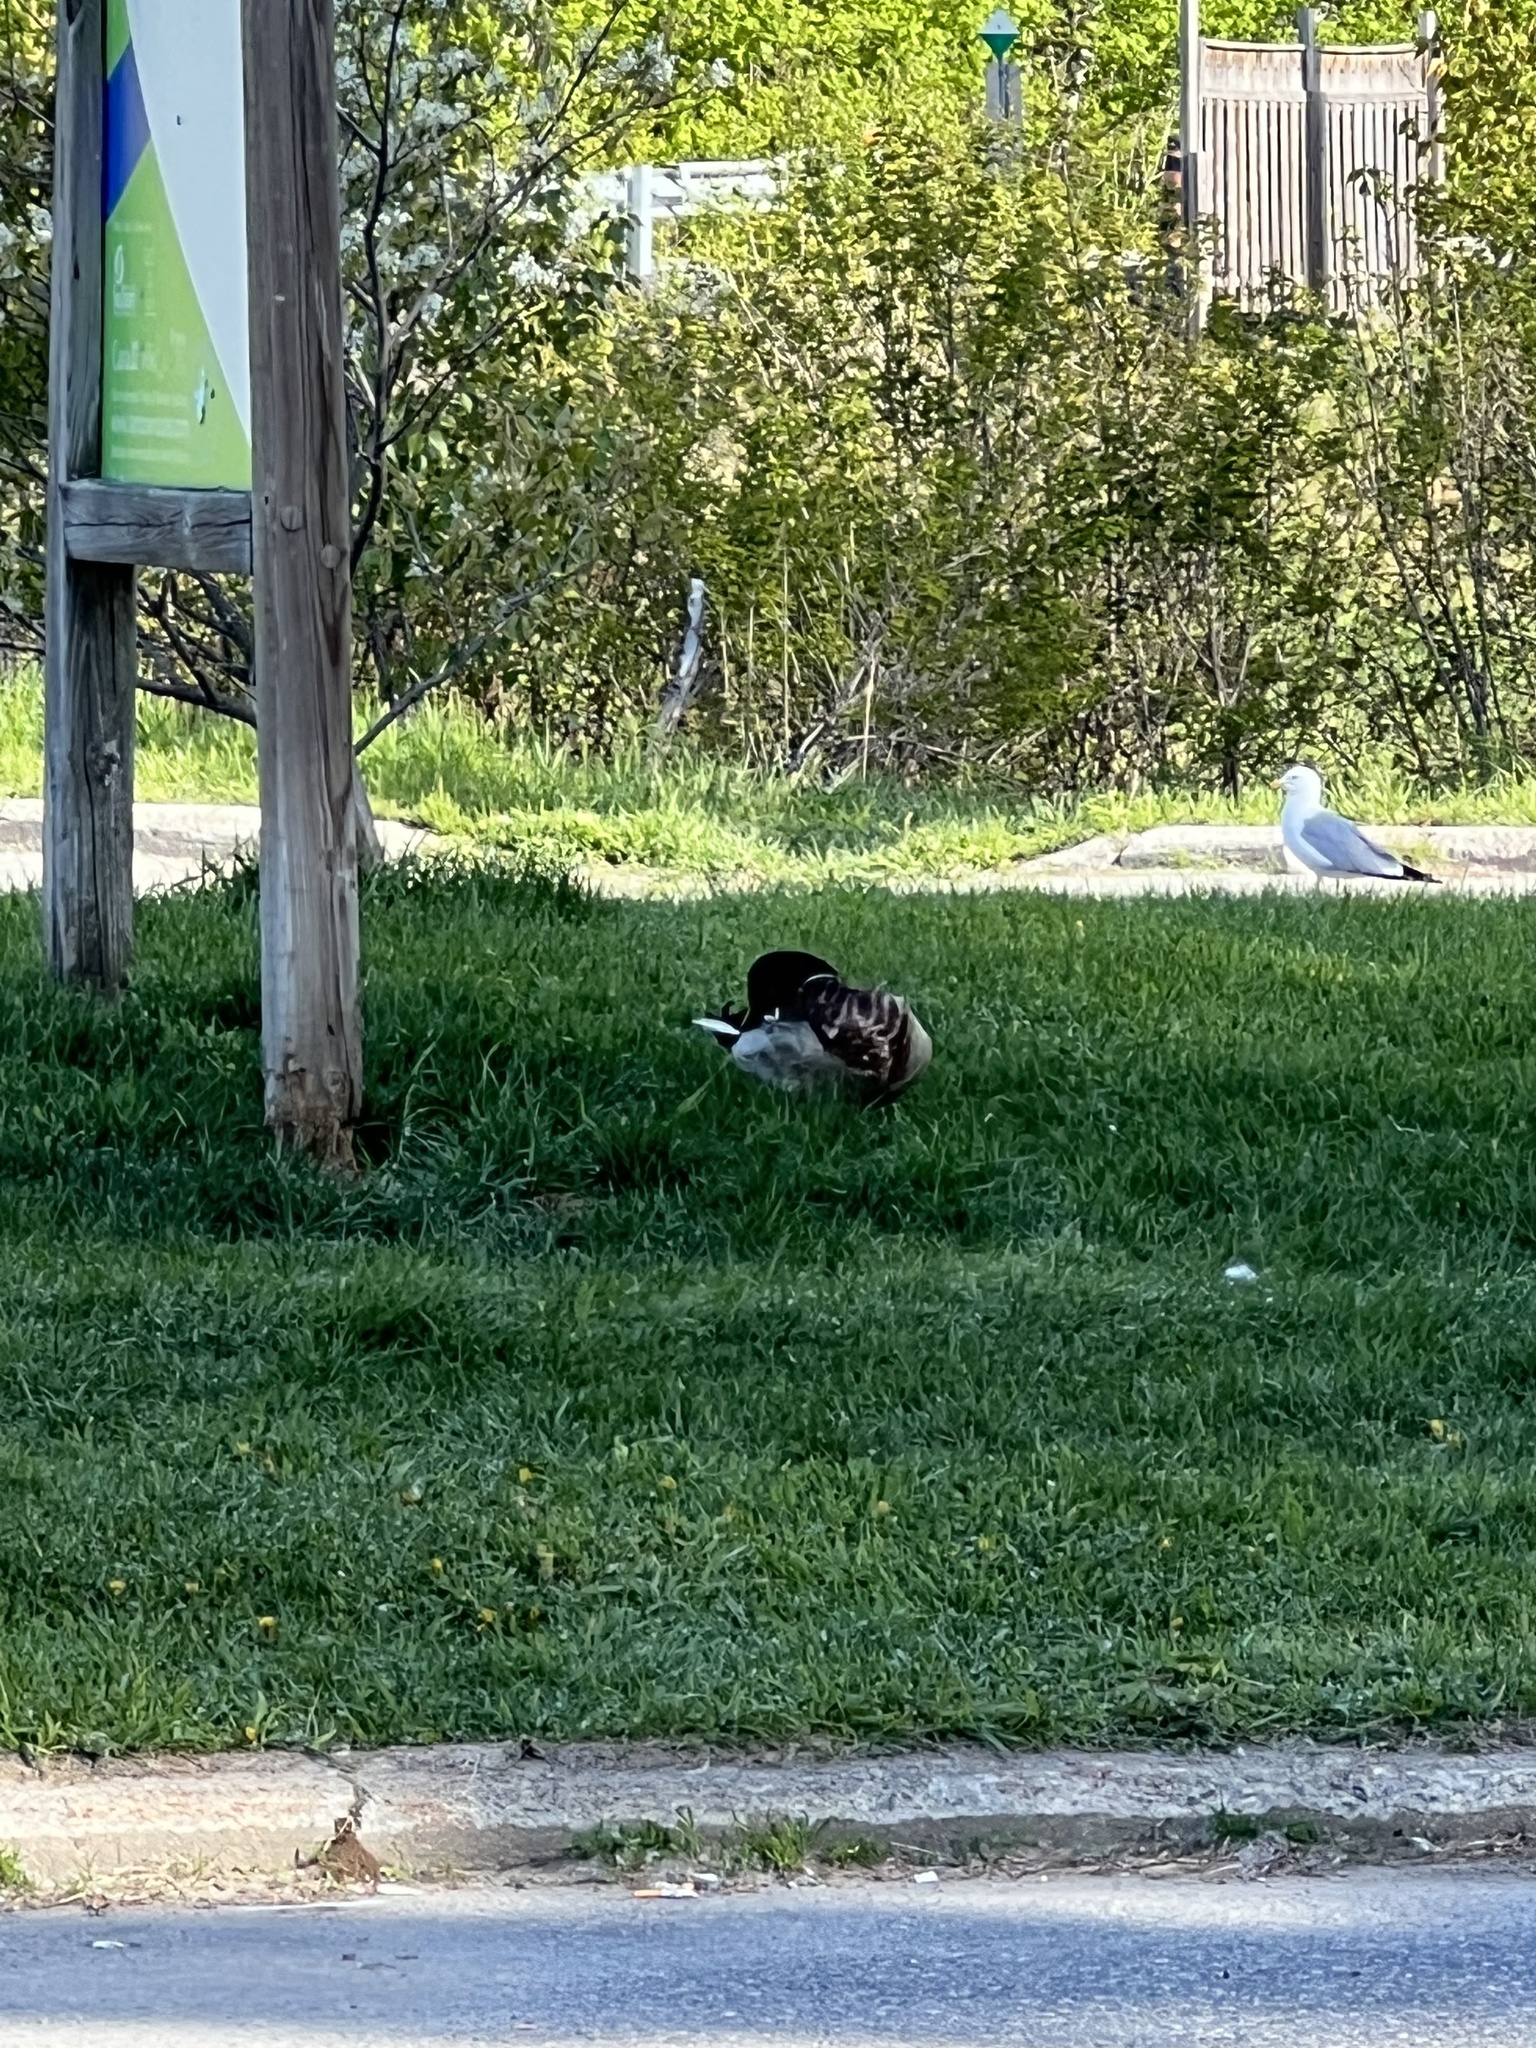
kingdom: Animalia
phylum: Chordata
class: Aves
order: Anseriformes
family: Anatidae
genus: Anas
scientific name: Anas platyrhynchos
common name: Mallard
